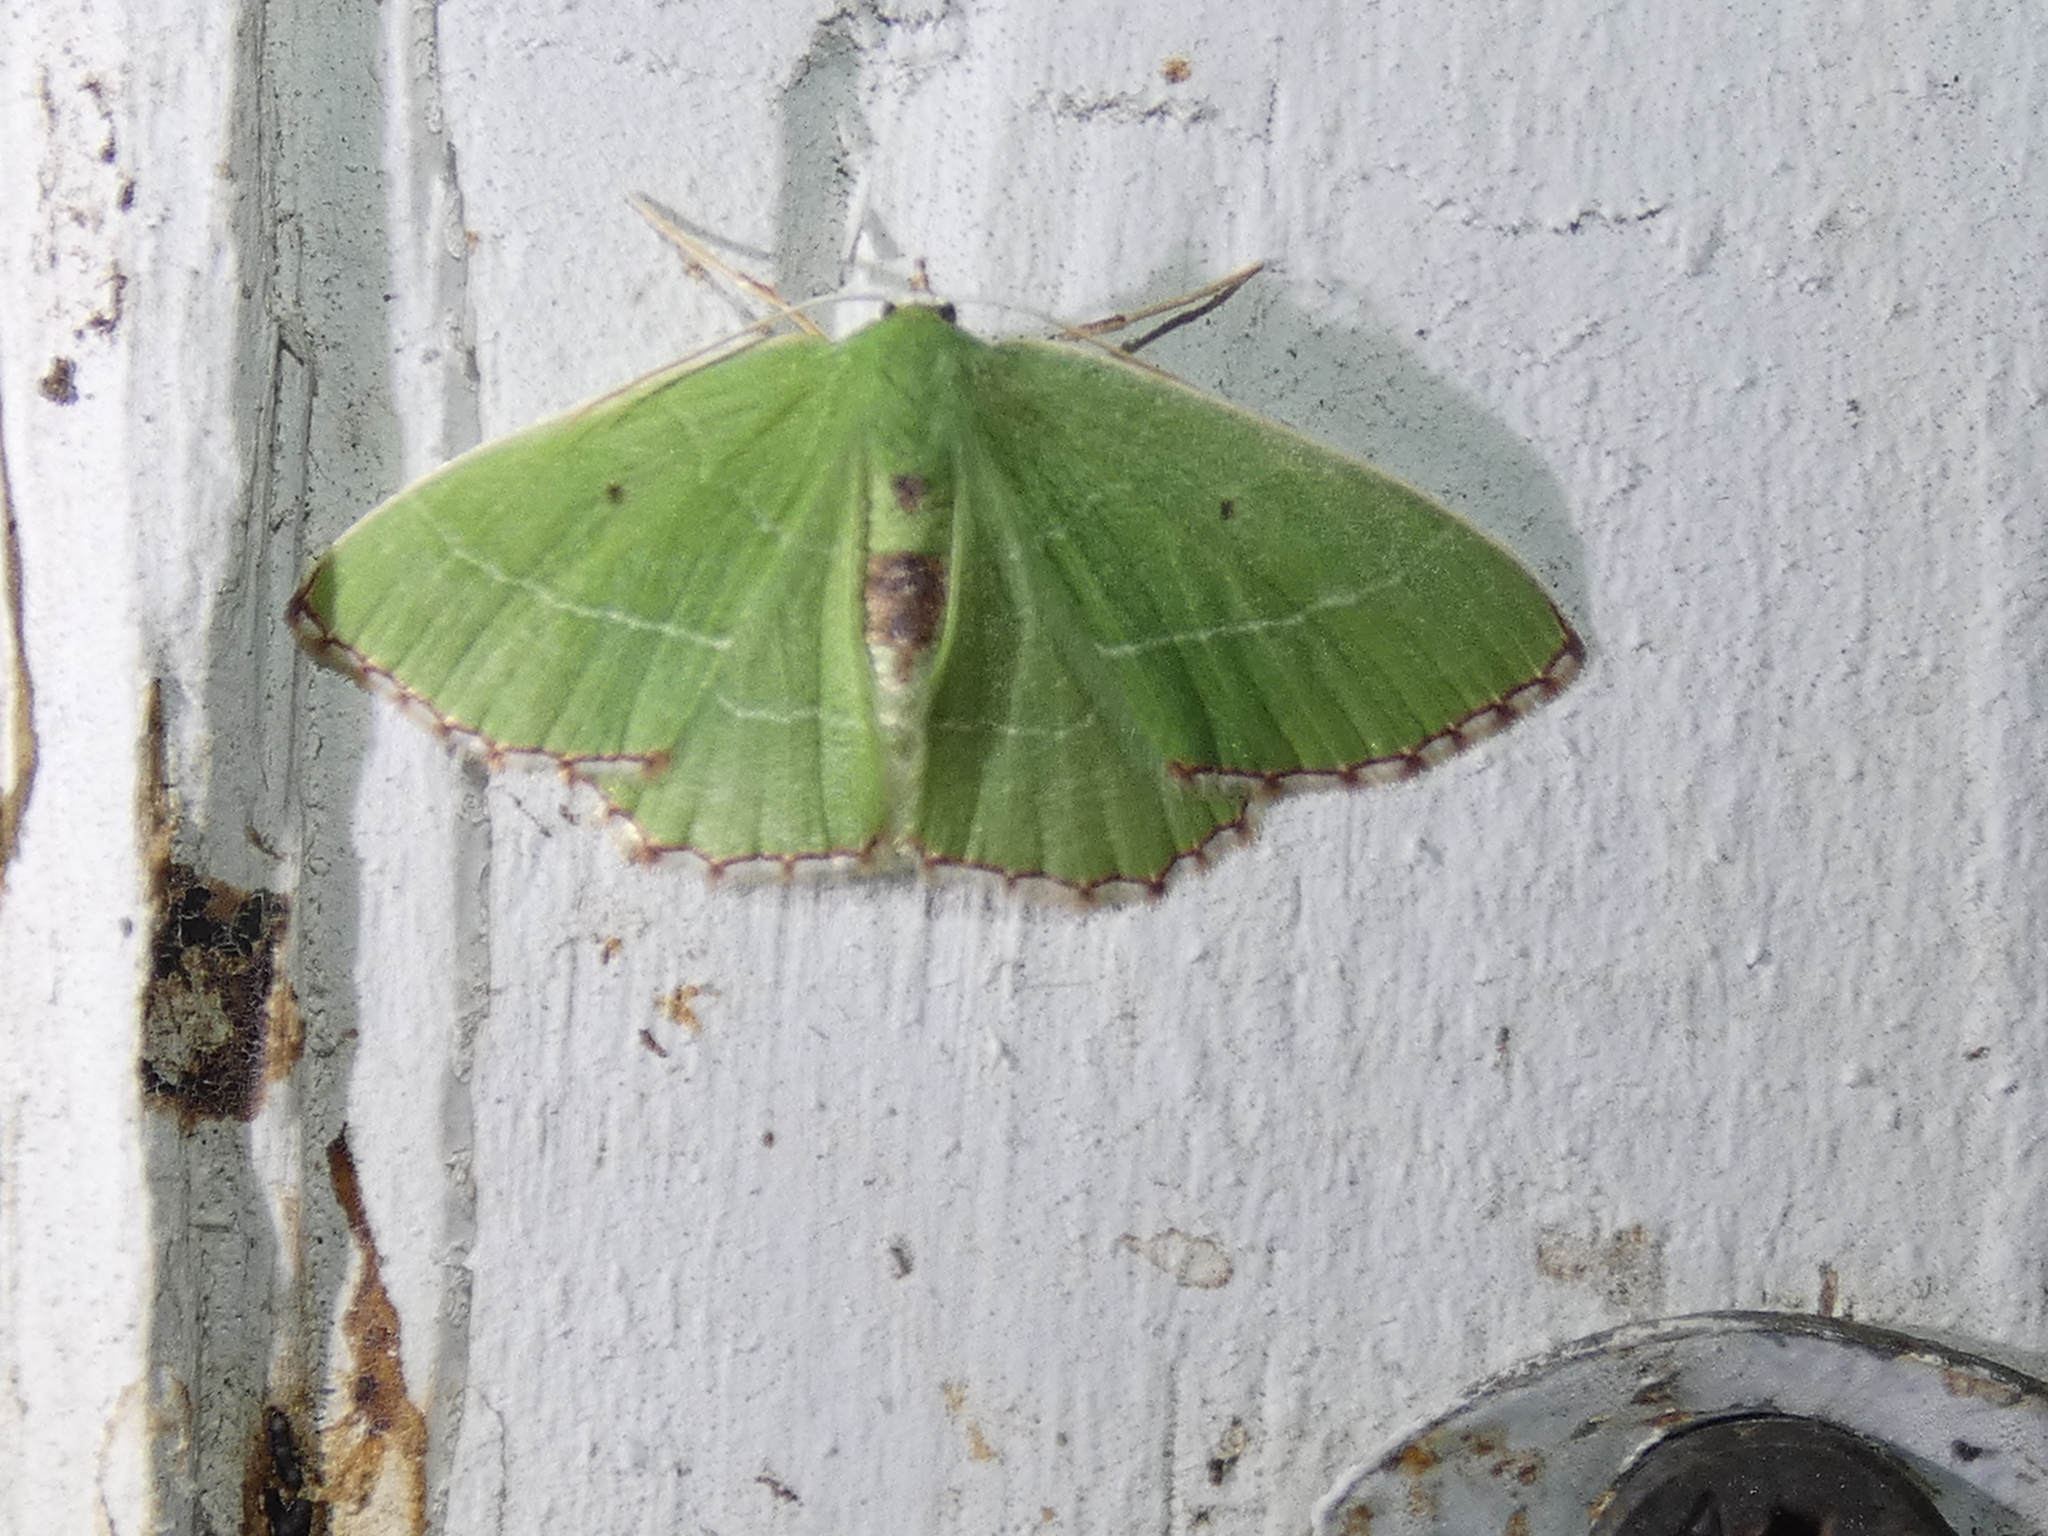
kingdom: Animalia
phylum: Arthropoda
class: Insecta
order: Lepidoptera
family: Geometridae
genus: Nemoria
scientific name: Nemoria saturiba
